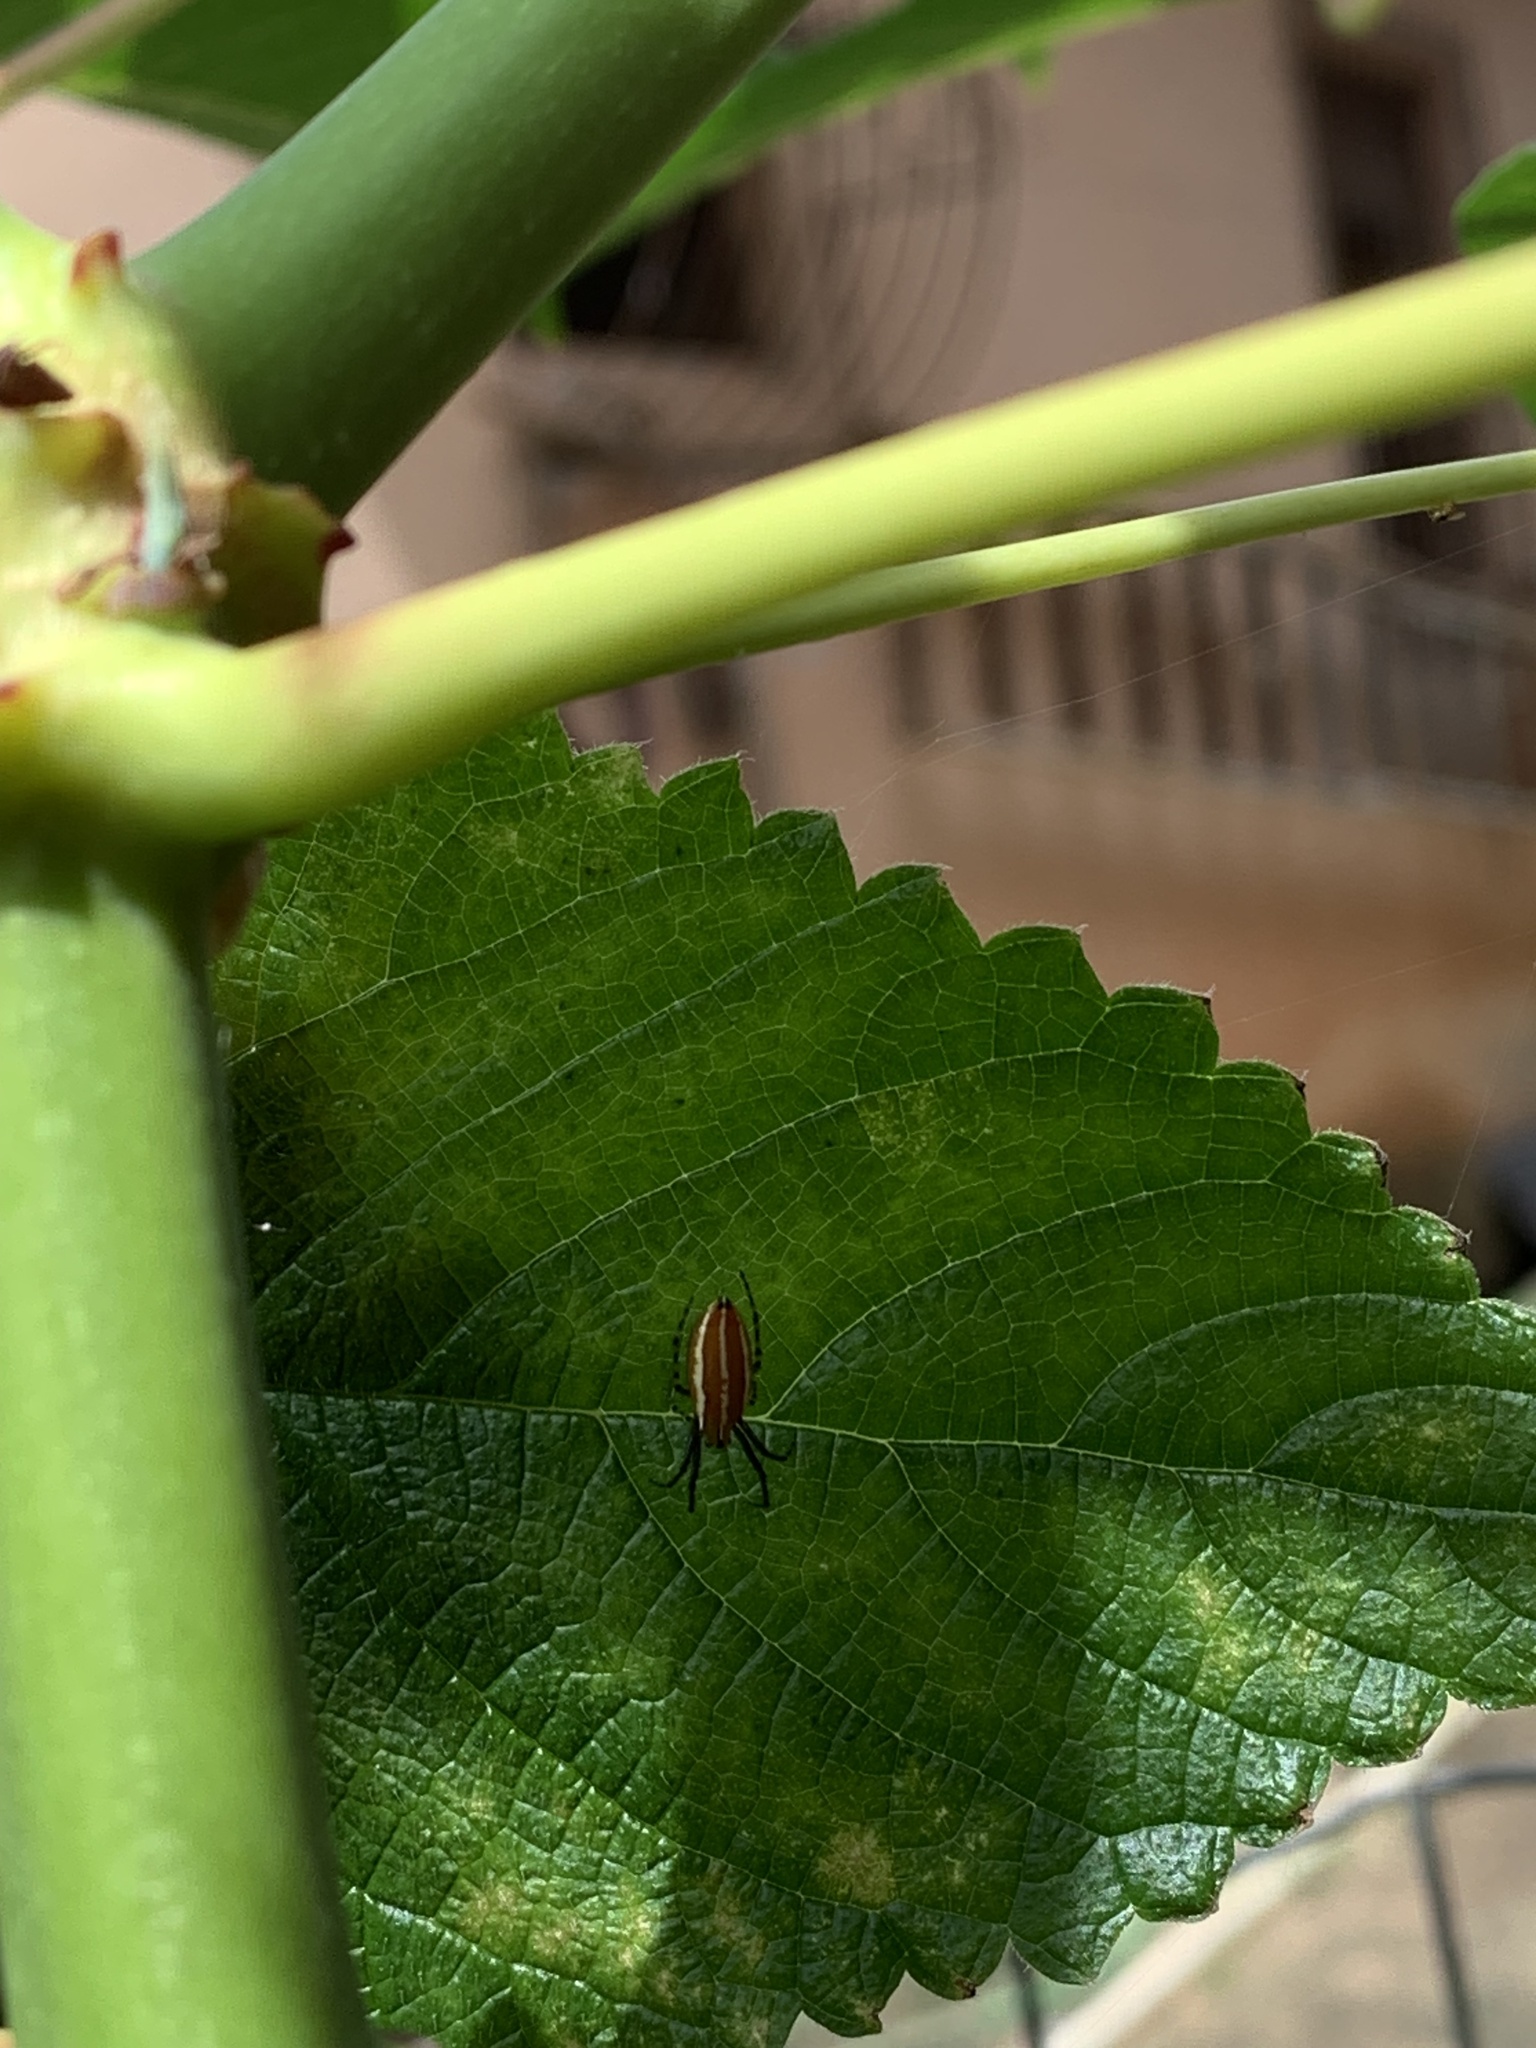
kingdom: Animalia
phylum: Arthropoda
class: Arachnida
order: Araneae
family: Araneidae
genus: Alpaida
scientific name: Alpaida trispinosa
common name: Orb weavers
